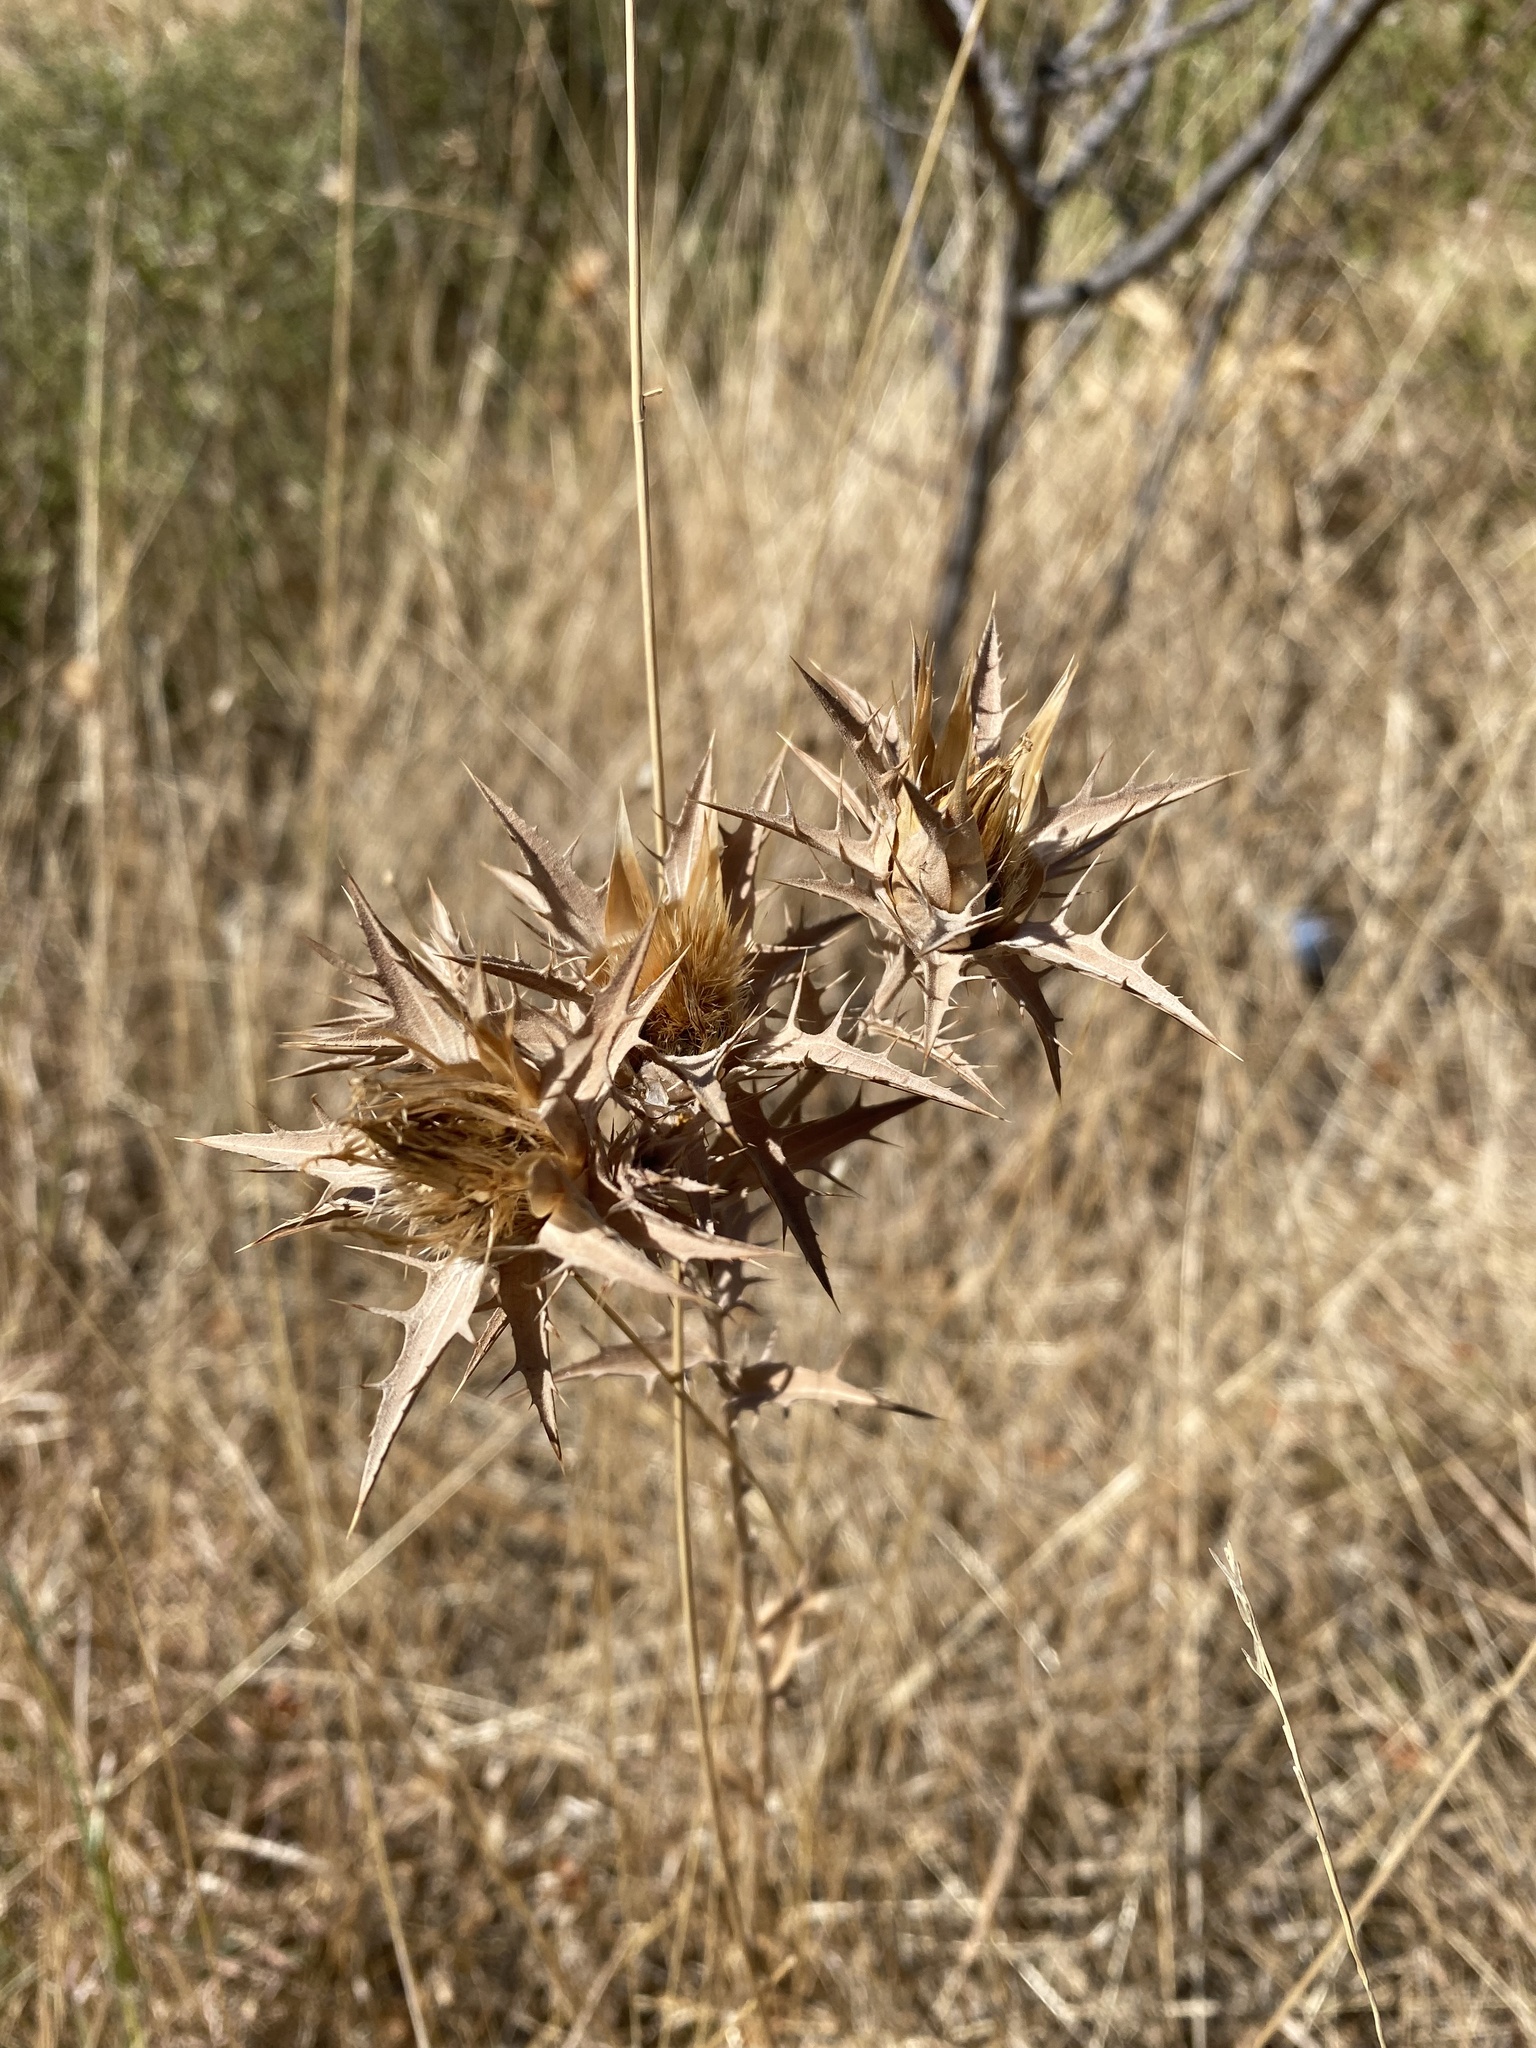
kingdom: Plantae
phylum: Tracheophyta
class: Magnoliopsida
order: Asterales
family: Asteraceae
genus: Carthamus
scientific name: Carthamus lanatus
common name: Downy safflower
